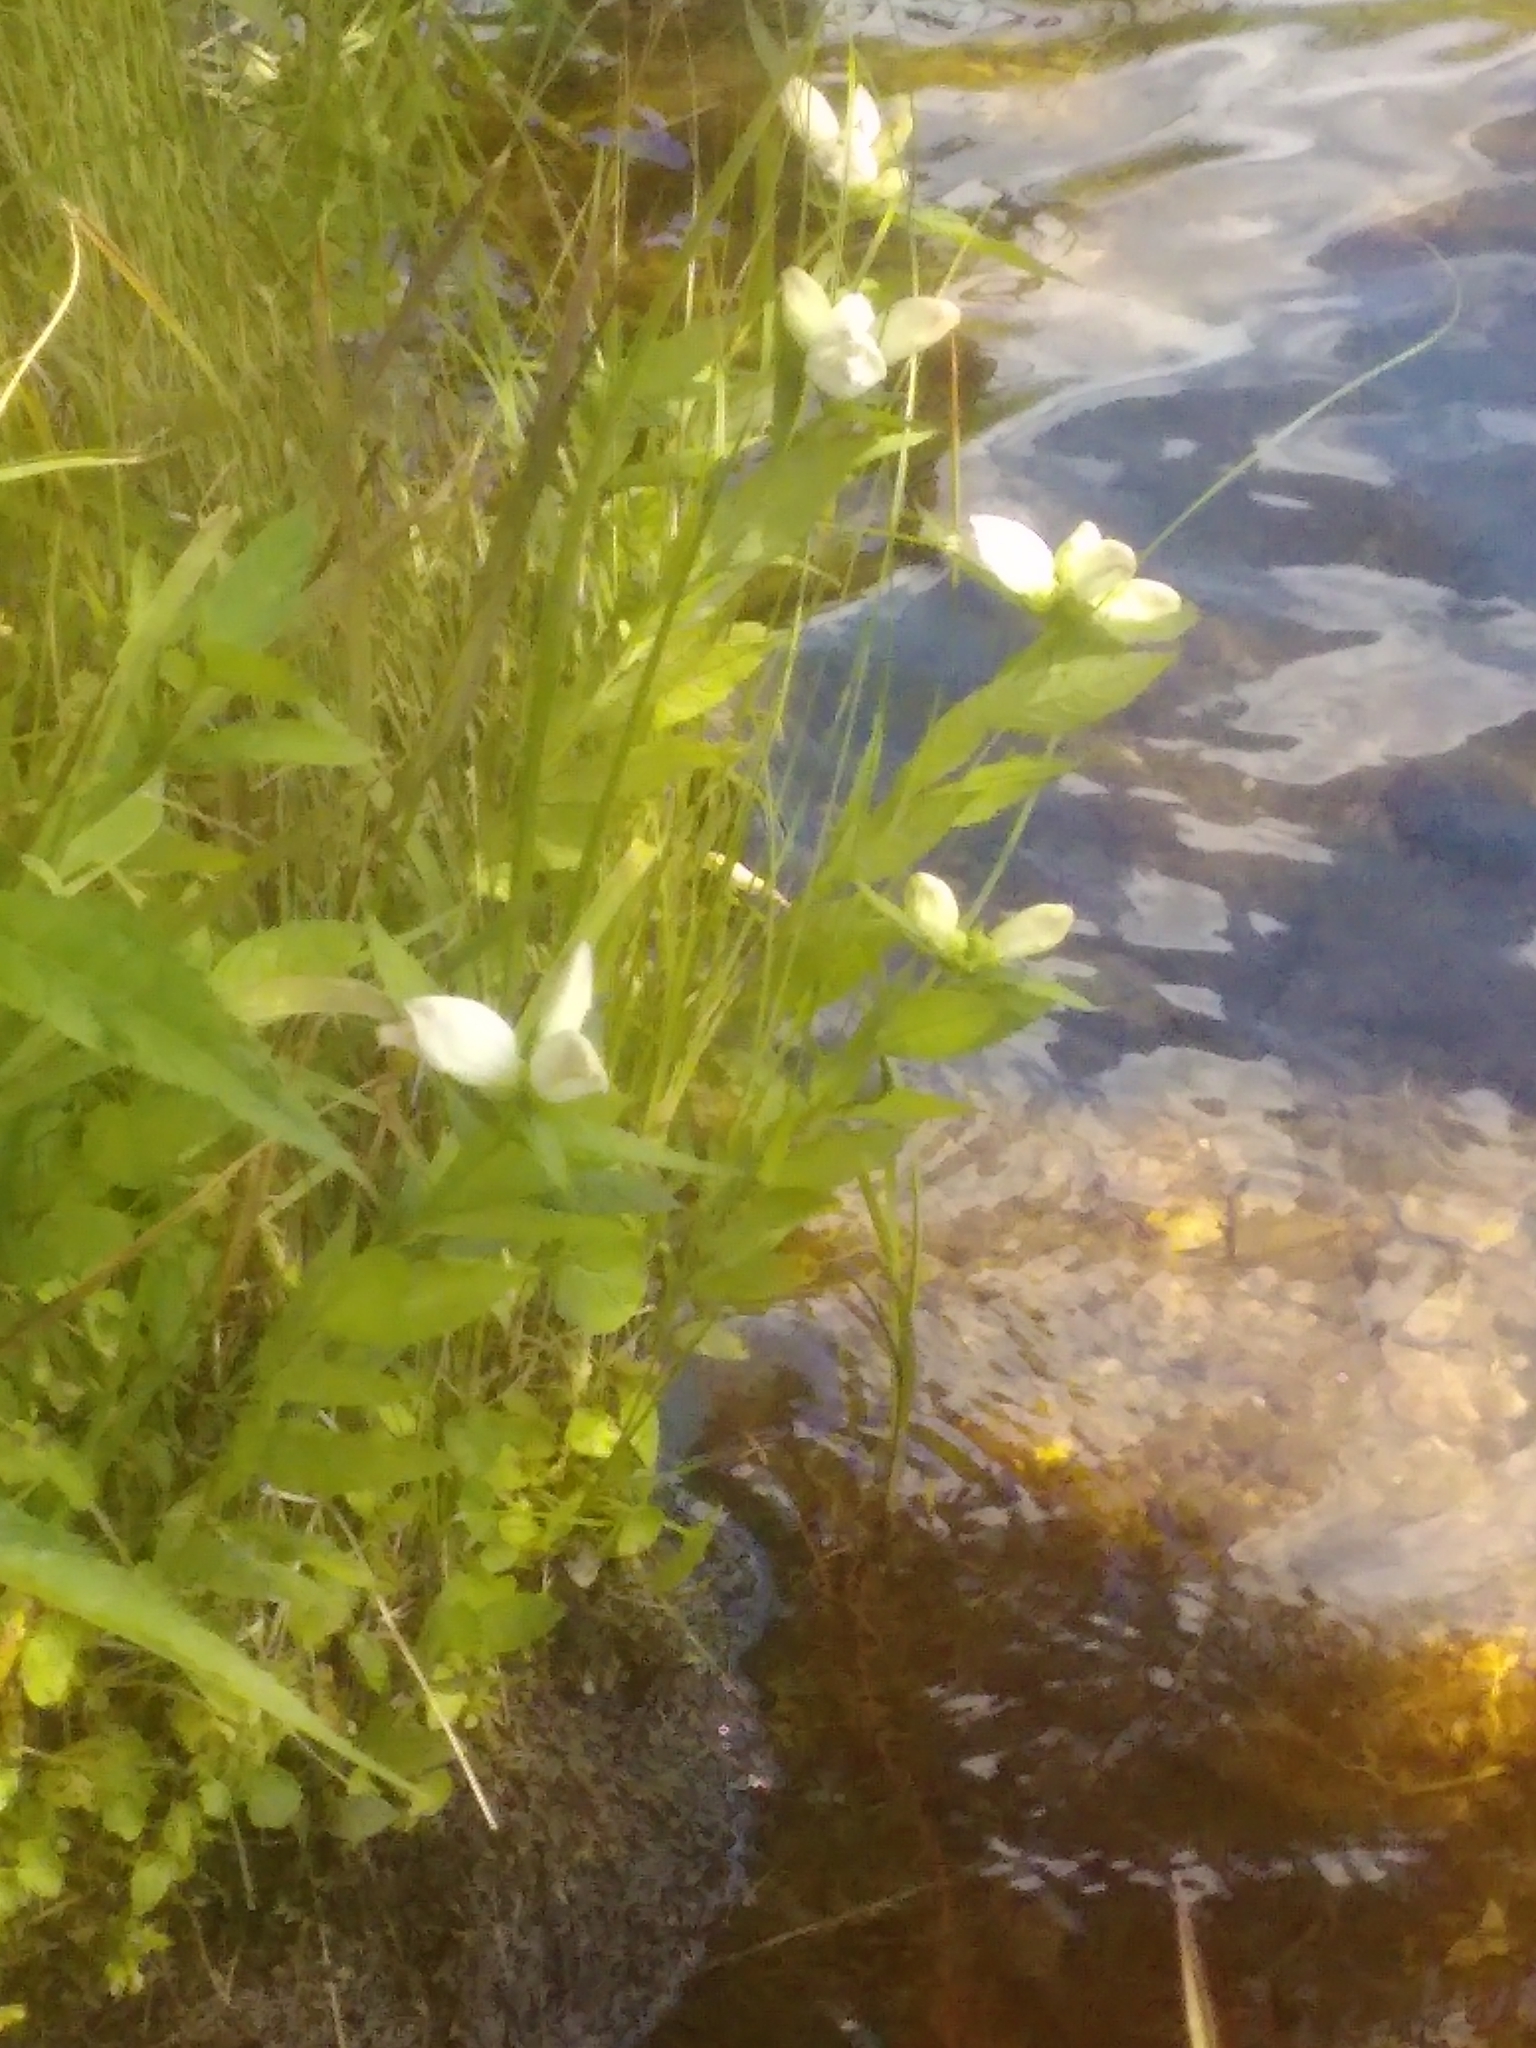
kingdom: Plantae
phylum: Tracheophyta
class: Magnoliopsida
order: Lamiales
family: Plantaginaceae
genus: Chelone
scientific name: Chelone glabra
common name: Snakehead
